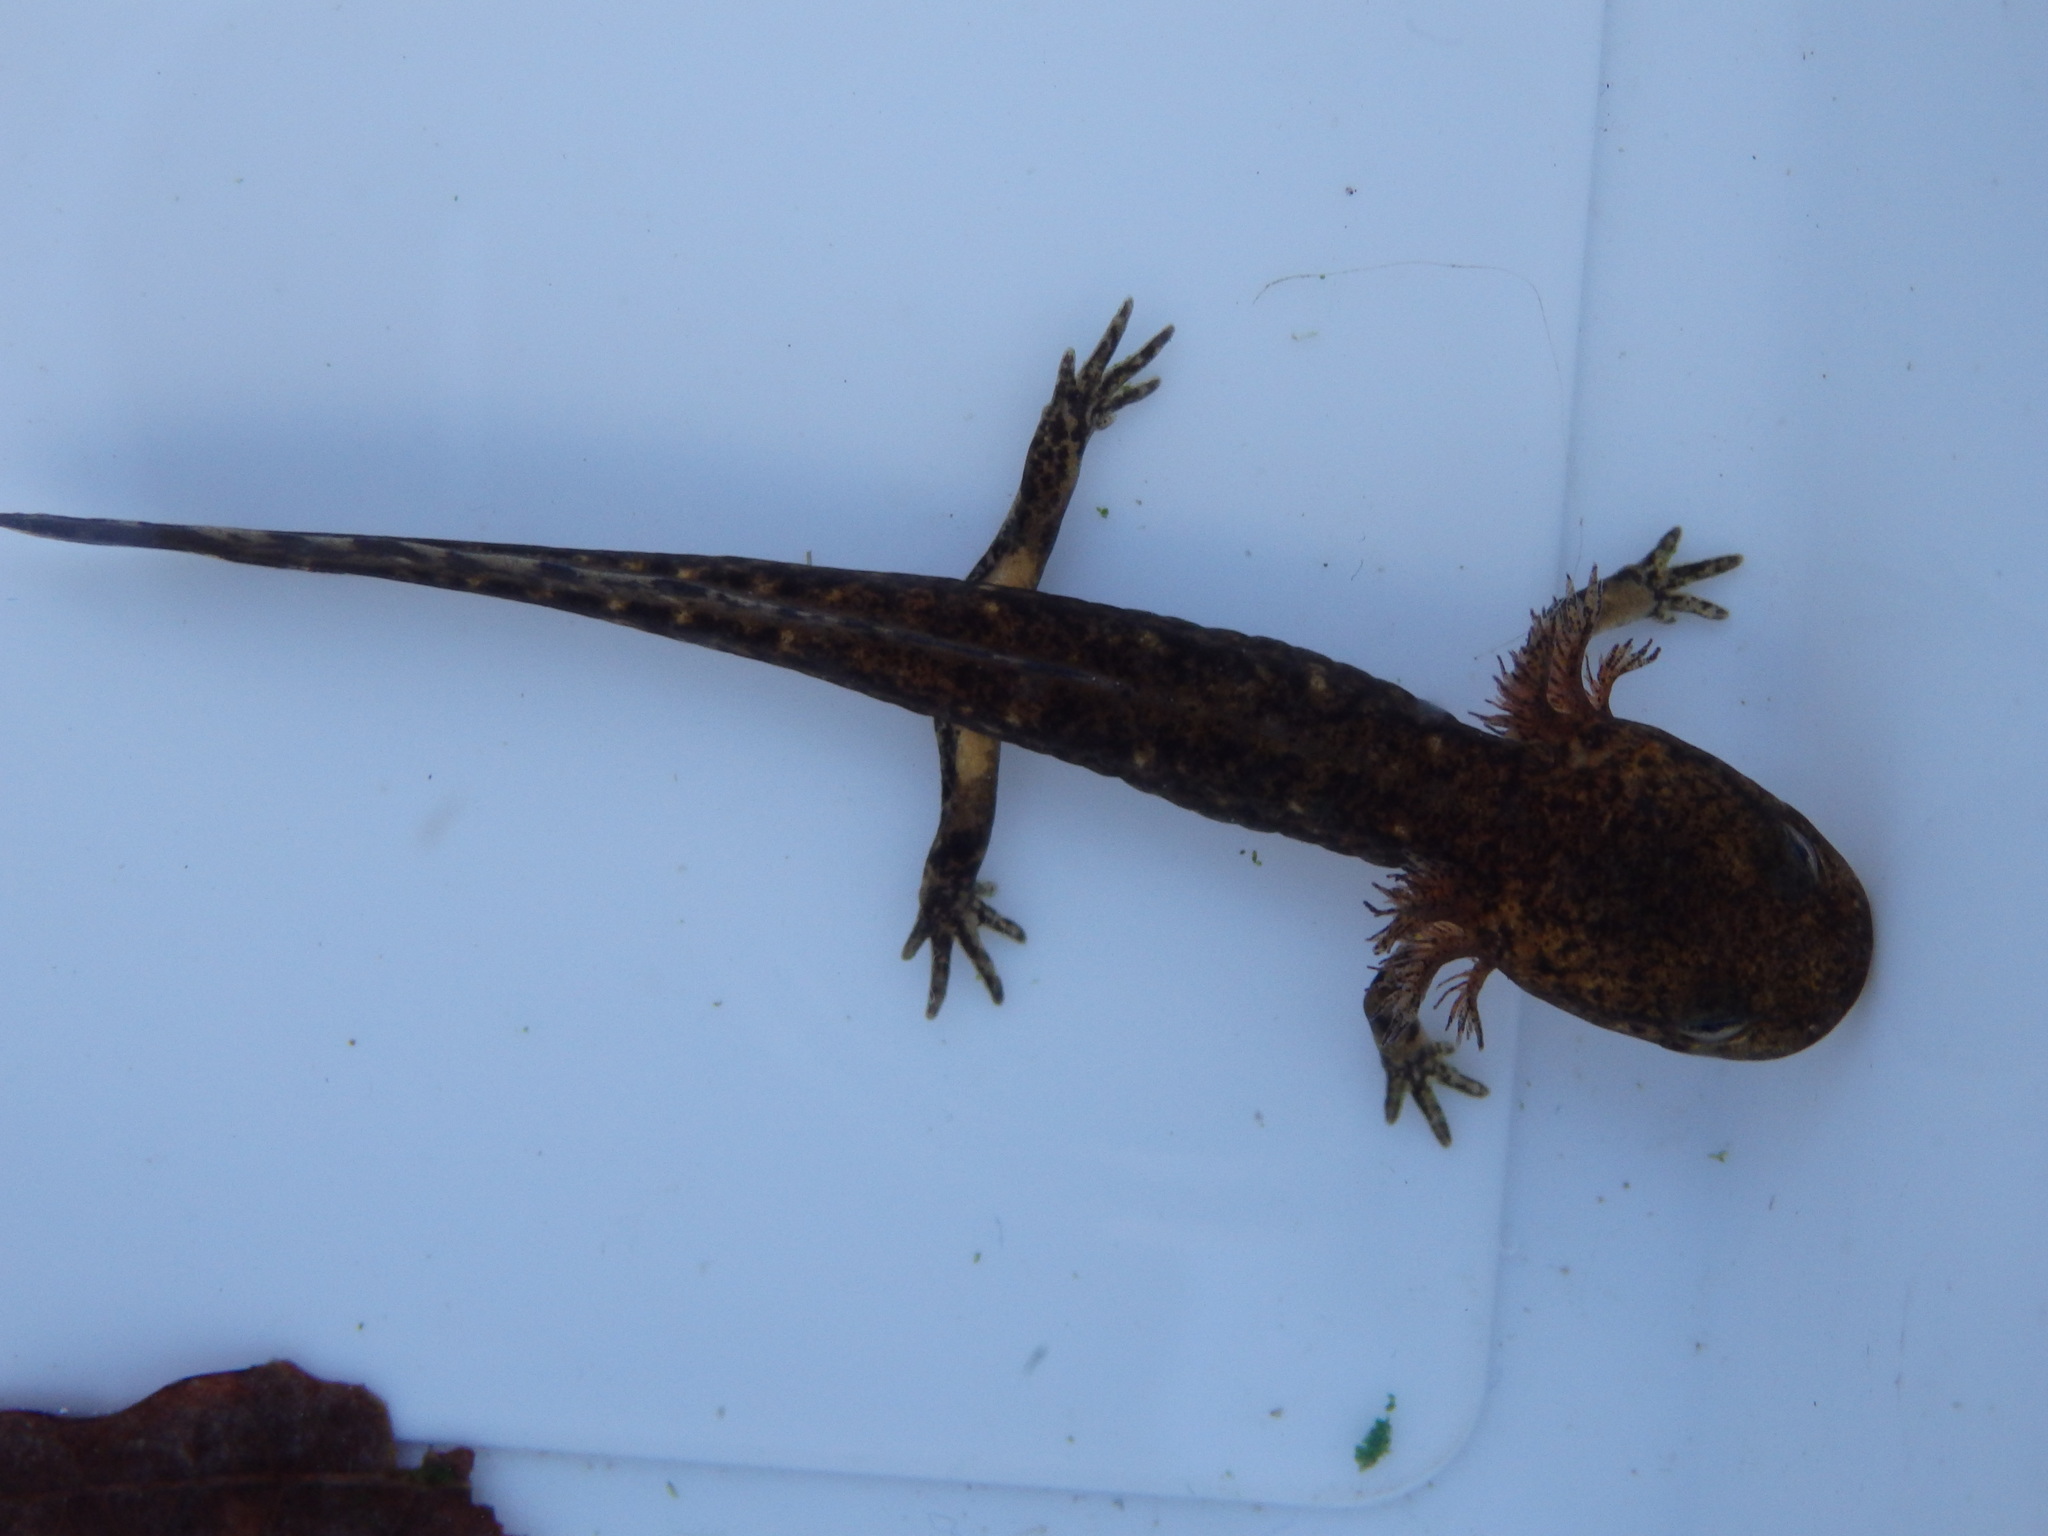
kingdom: Animalia
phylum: Chordata
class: Amphibia
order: Caudata
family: Salamandridae
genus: Salamandra
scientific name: Salamandra salamandra
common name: Fire salamander
